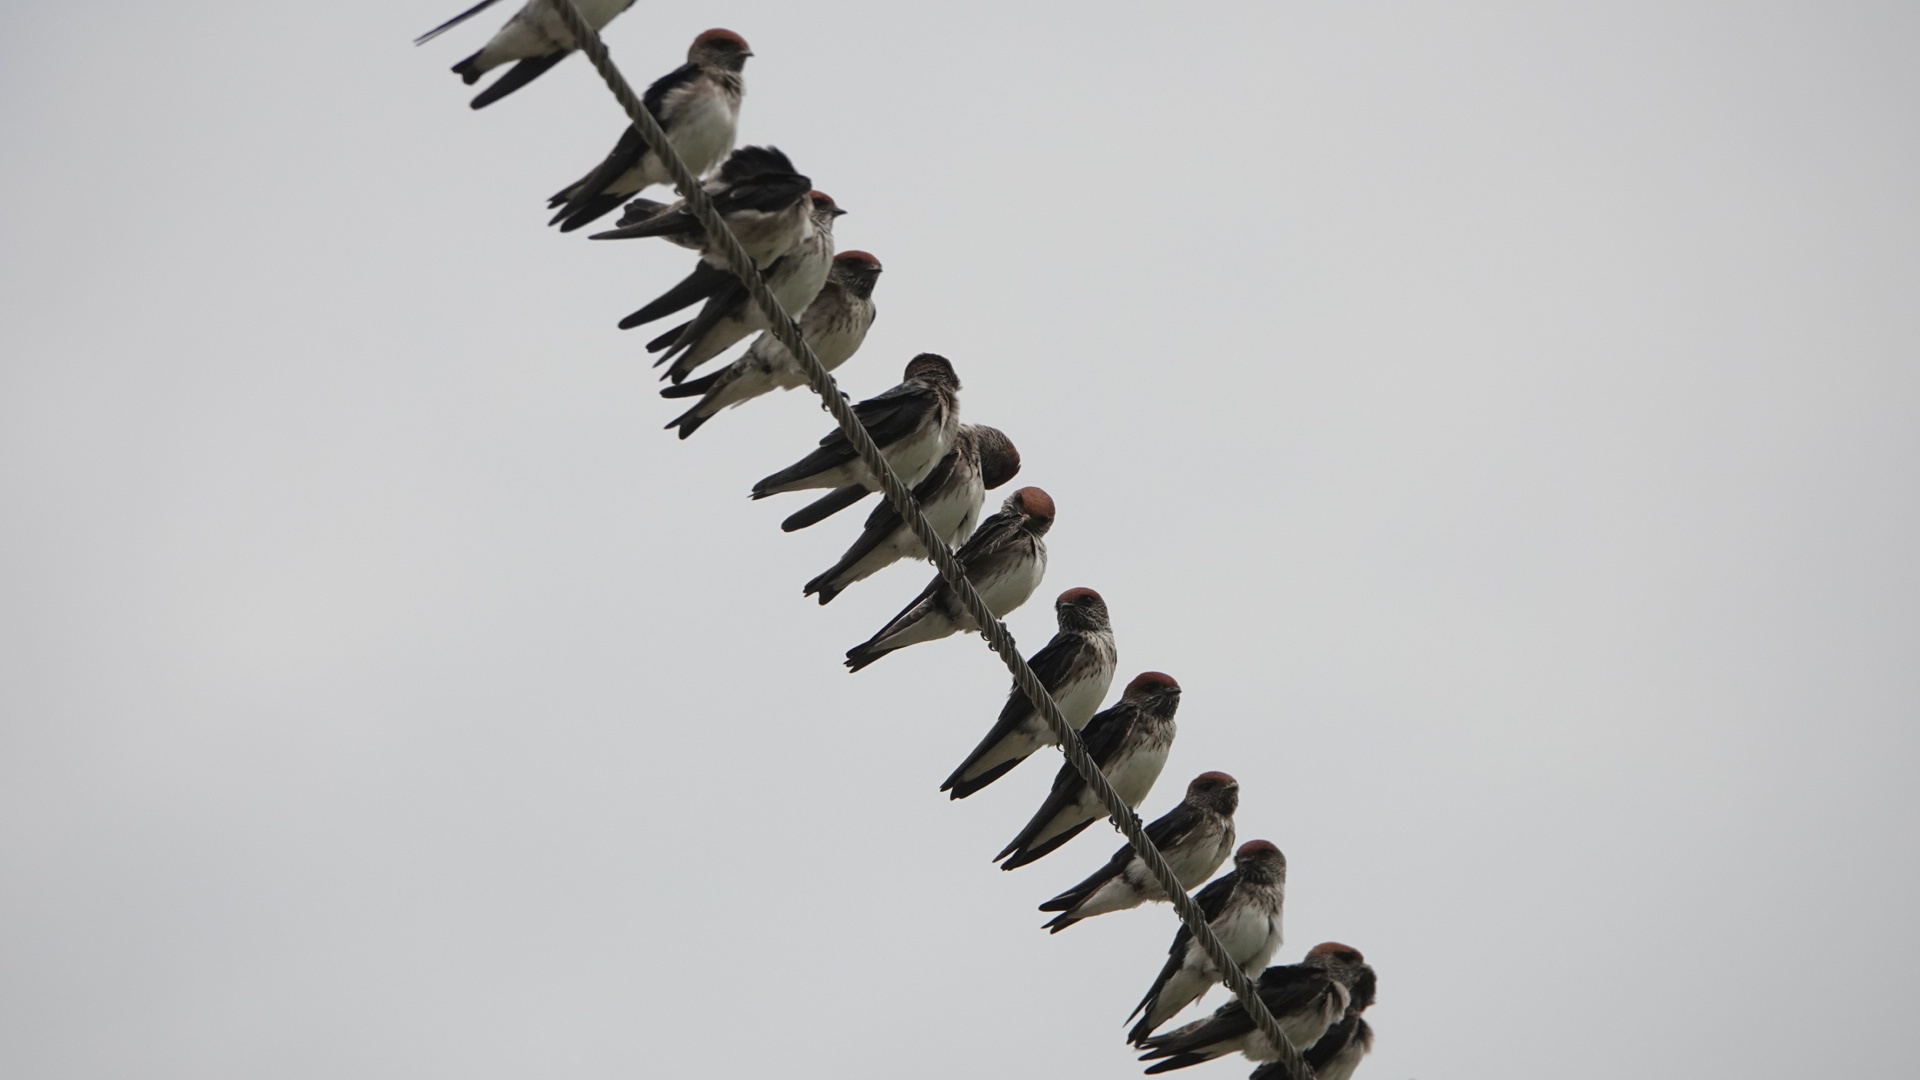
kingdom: Animalia
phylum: Chordata
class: Aves
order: Passeriformes
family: Hirundinidae
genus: Petrochelidon
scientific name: Petrochelidon fluvicola
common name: Streak-throated swallow
